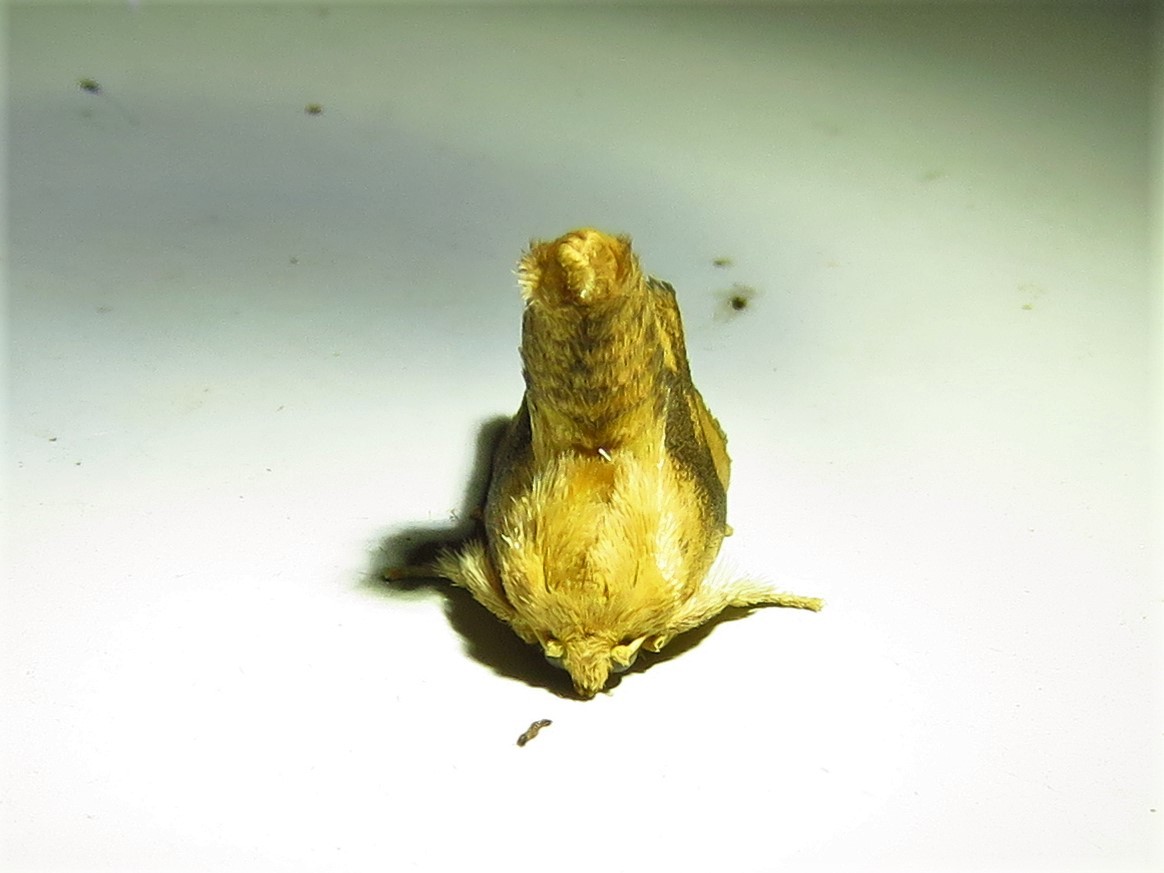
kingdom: Animalia
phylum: Arthropoda
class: Insecta
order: Lepidoptera
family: Limacodidae
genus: Apoda
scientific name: Apoda y-inversa
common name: Yellow-collared slug moth
